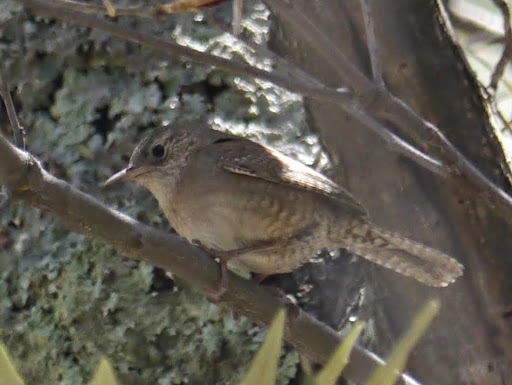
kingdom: Animalia
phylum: Chordata
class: Aves
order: Passeriformes
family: Troglodytidae
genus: Troglodytes
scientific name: Troglodytes aedon
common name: House wren
